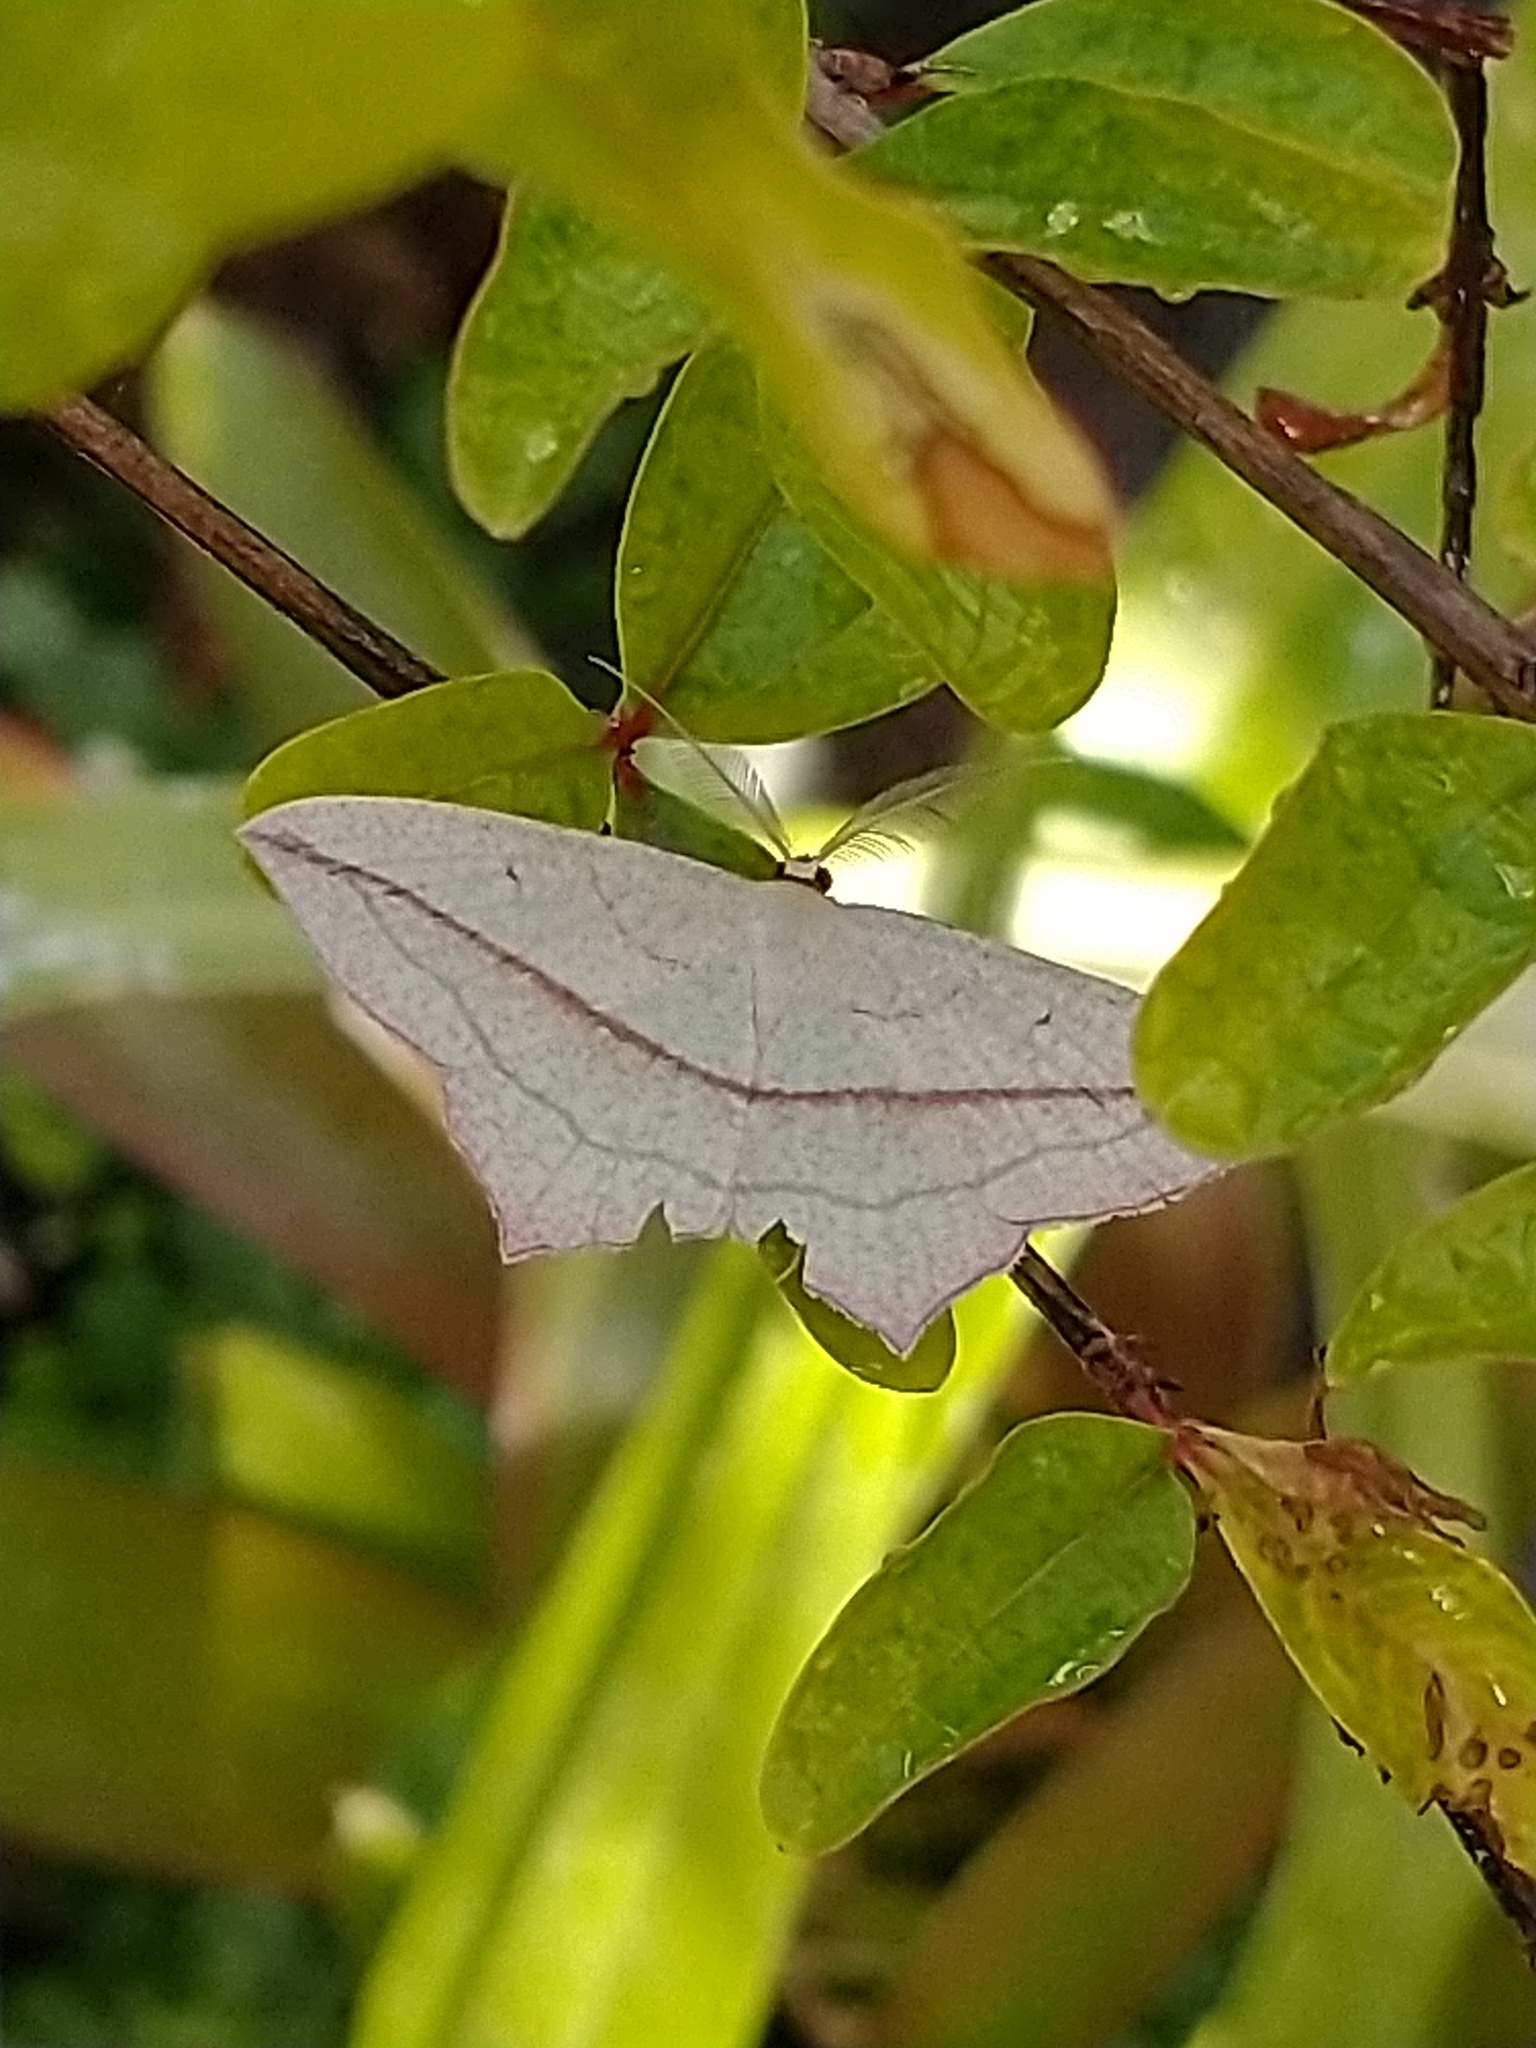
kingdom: Animalia
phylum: Arthropoda
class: Insecta
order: Lepidoptera
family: Geometridae
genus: Timandra
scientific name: Timandra comae
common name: Blood-vein
